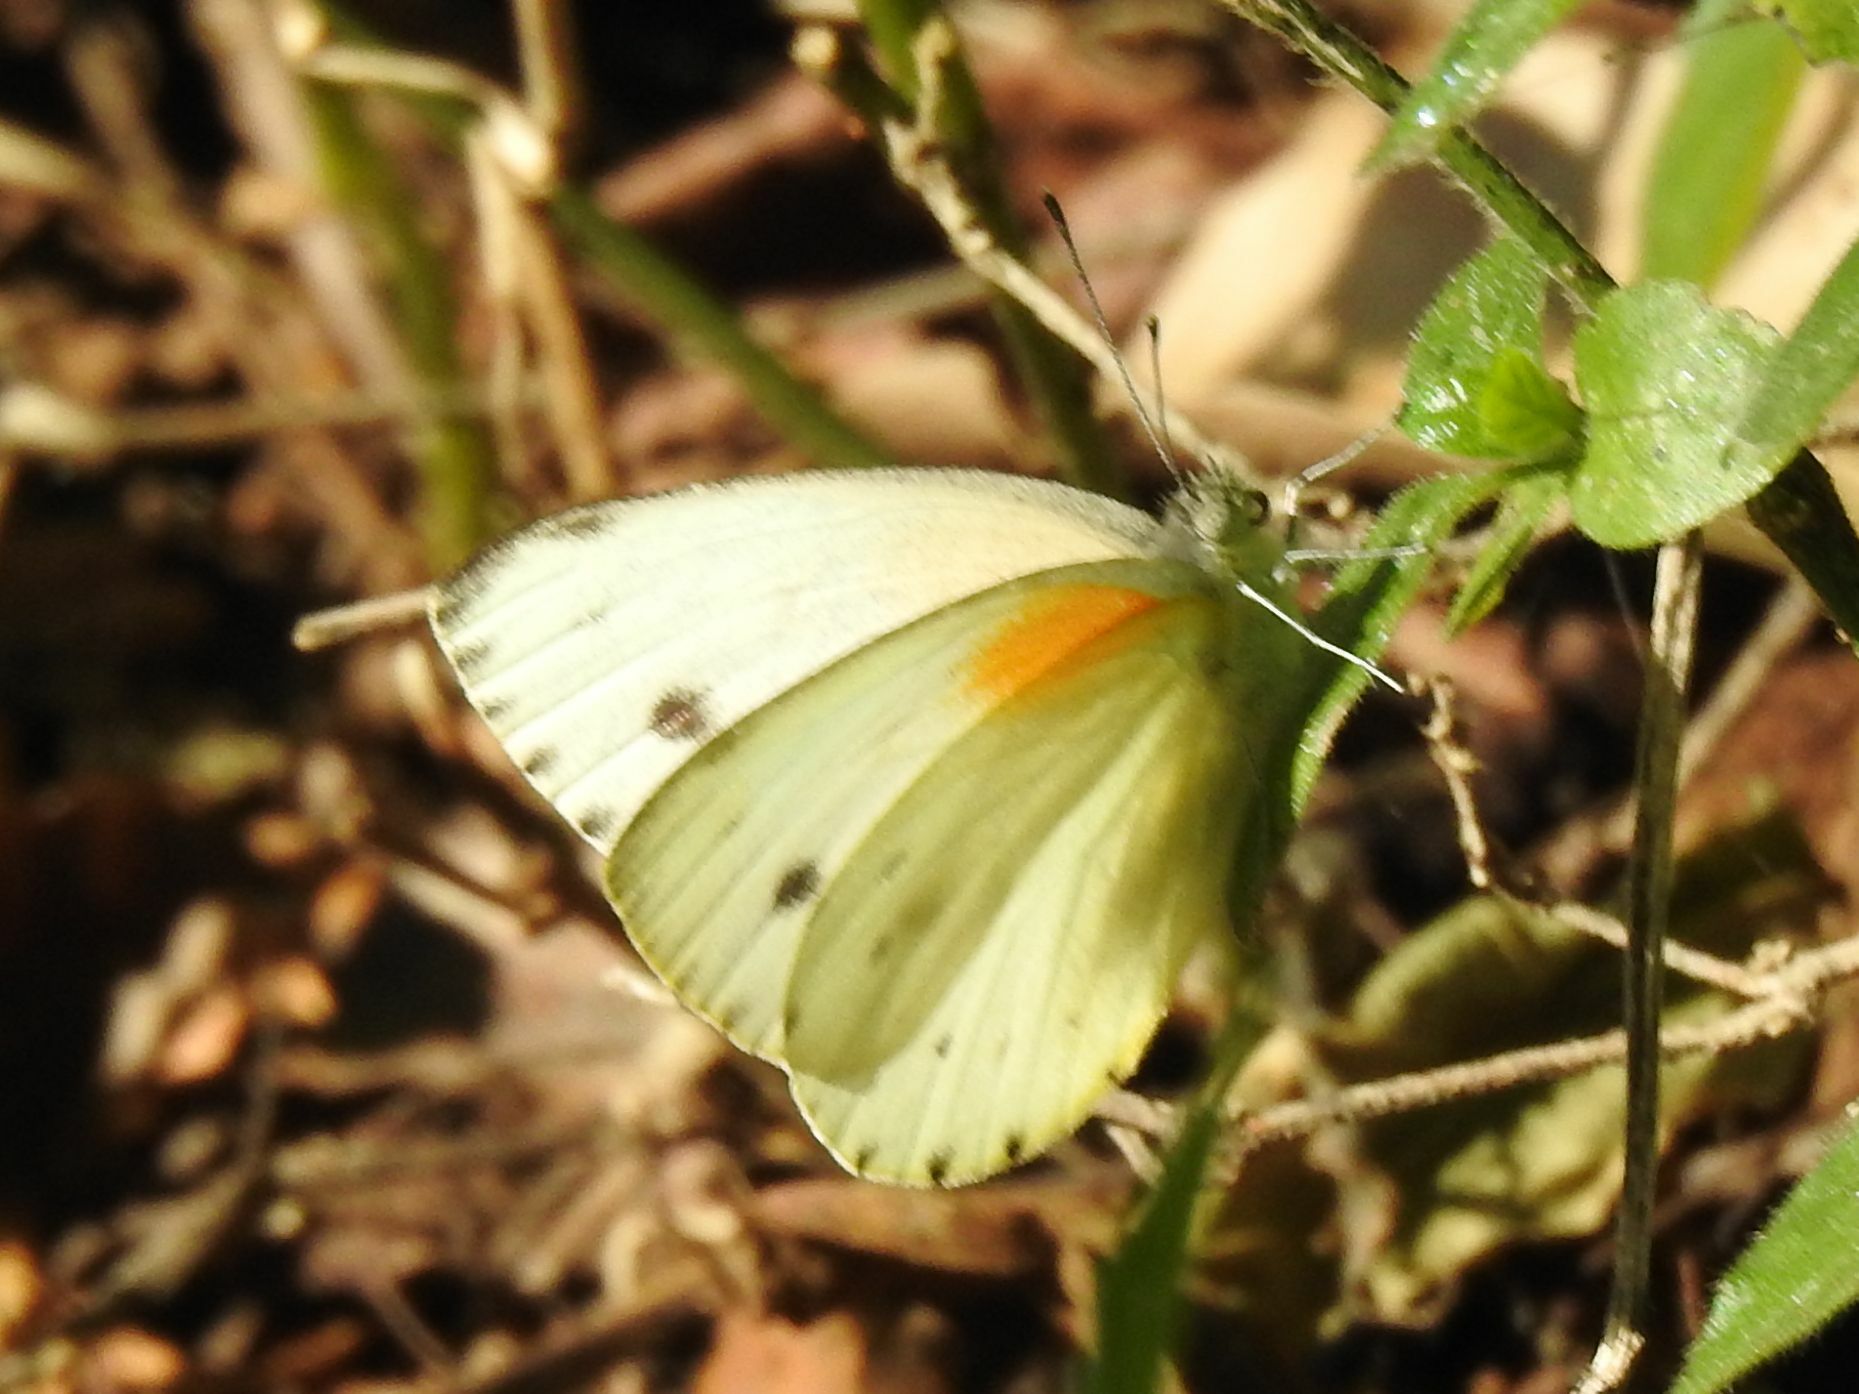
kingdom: Animalia
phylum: Arthropoda
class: Insecta
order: Lepidoptera
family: Pieridae
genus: Dixeia
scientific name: Dixeia pigea
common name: Ant-heap small white
